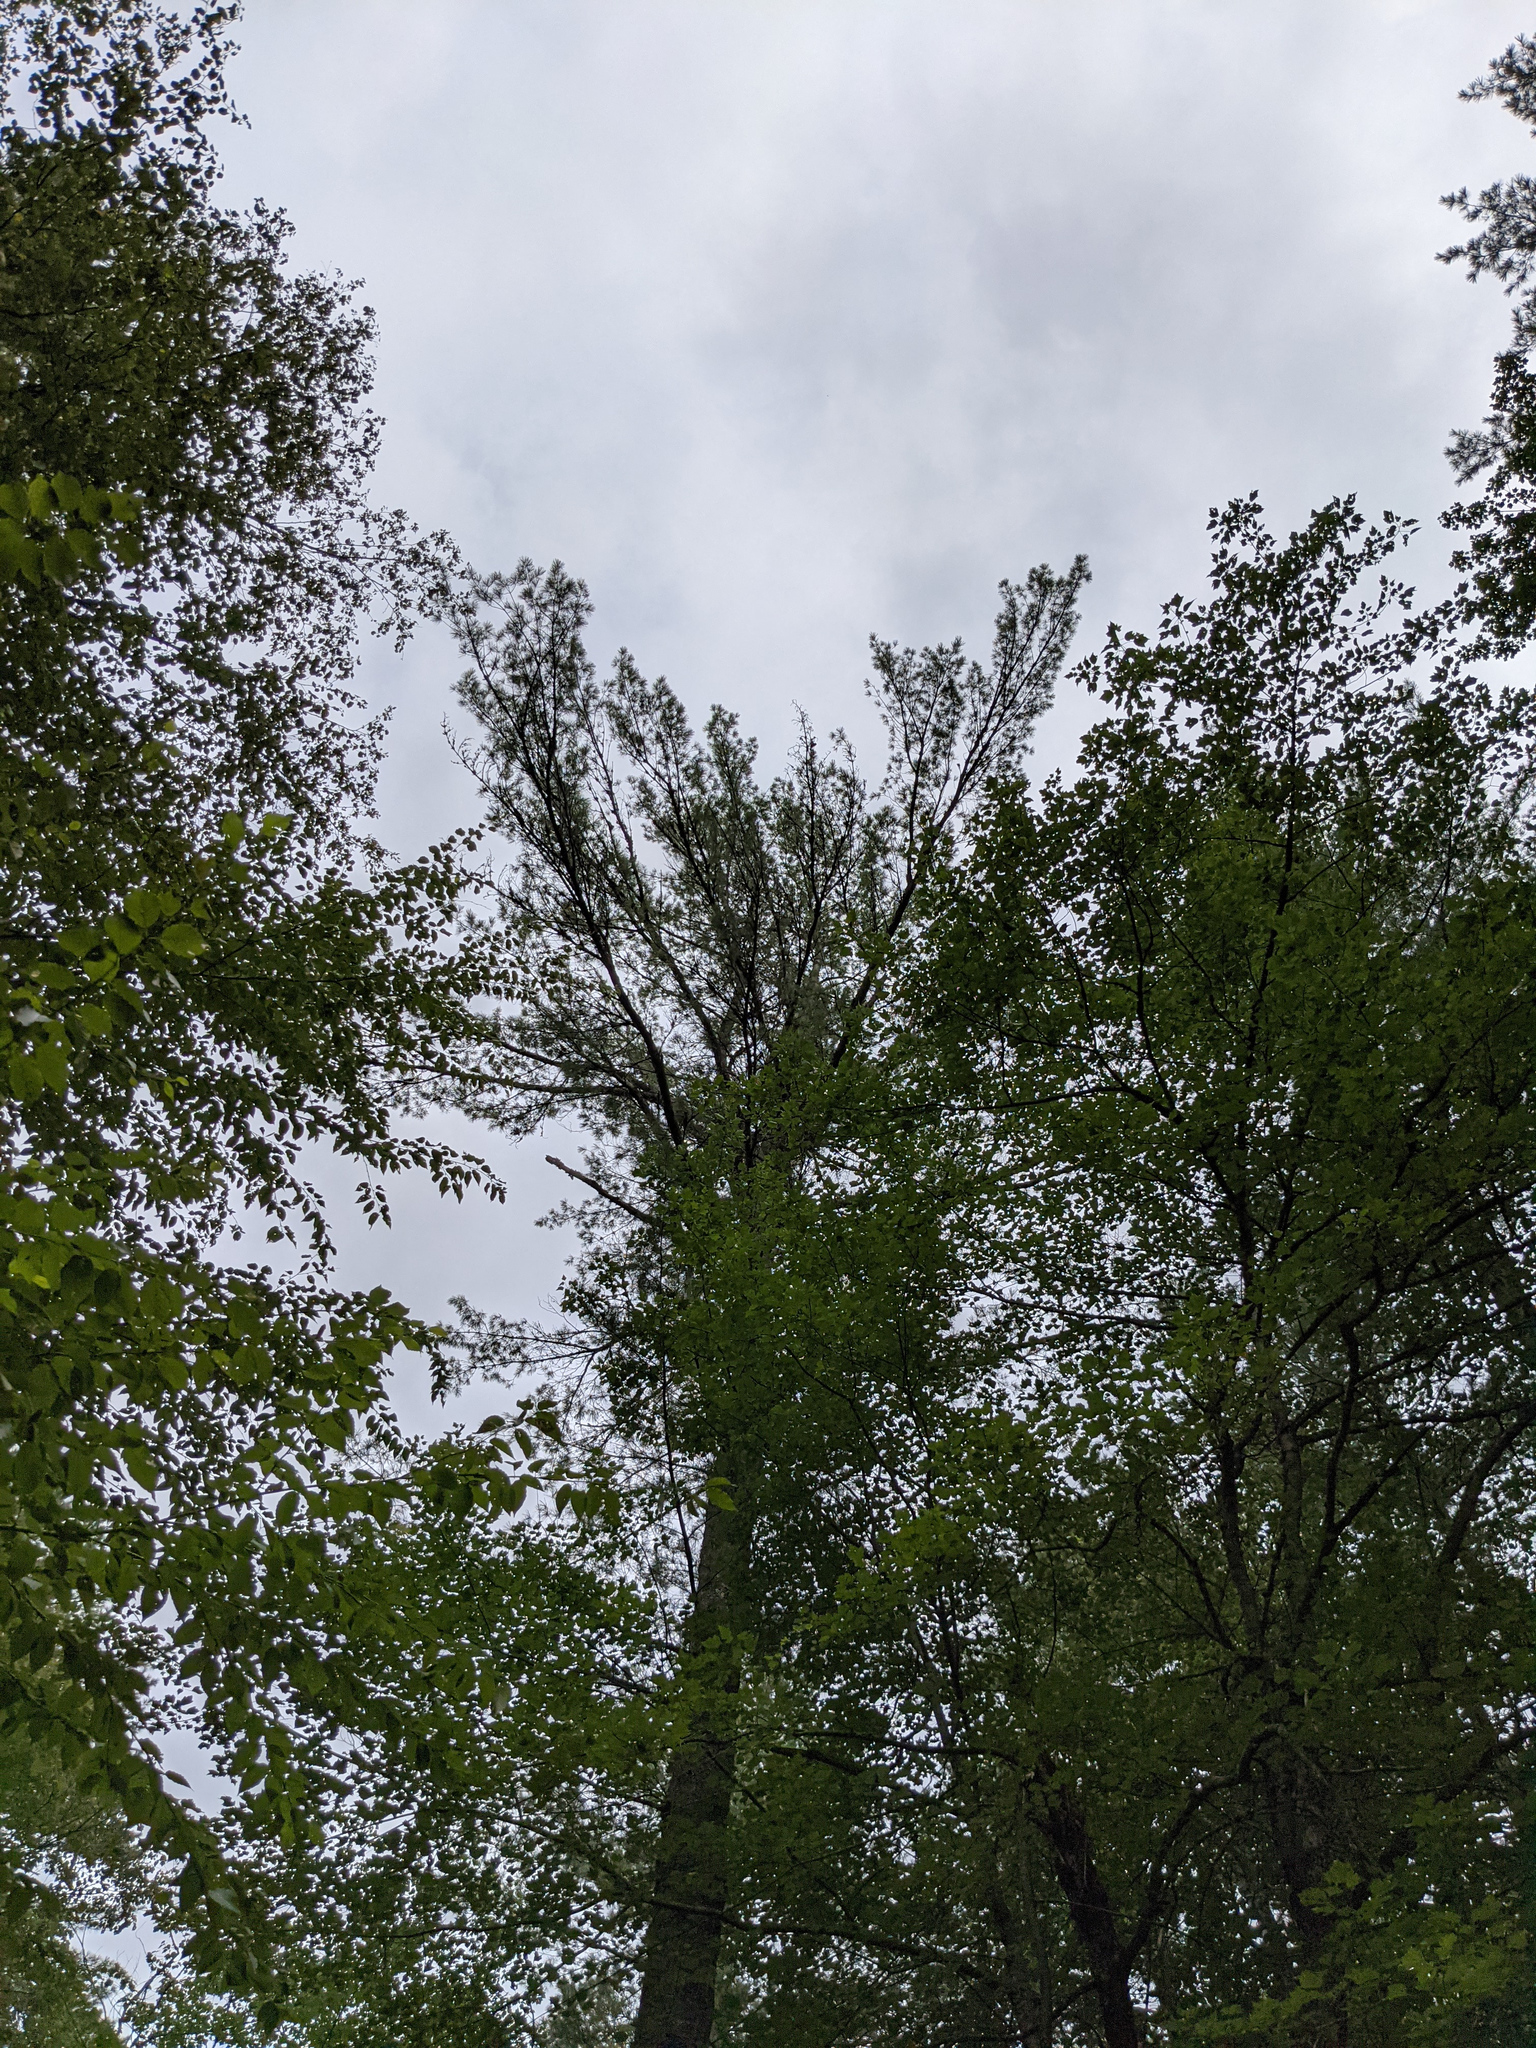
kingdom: Plantae
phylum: Tracheophyta
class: Pinopsida
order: Pinales
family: Pinaceae
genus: Pinus
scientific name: Pinus strobus
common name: Weymouth pine
